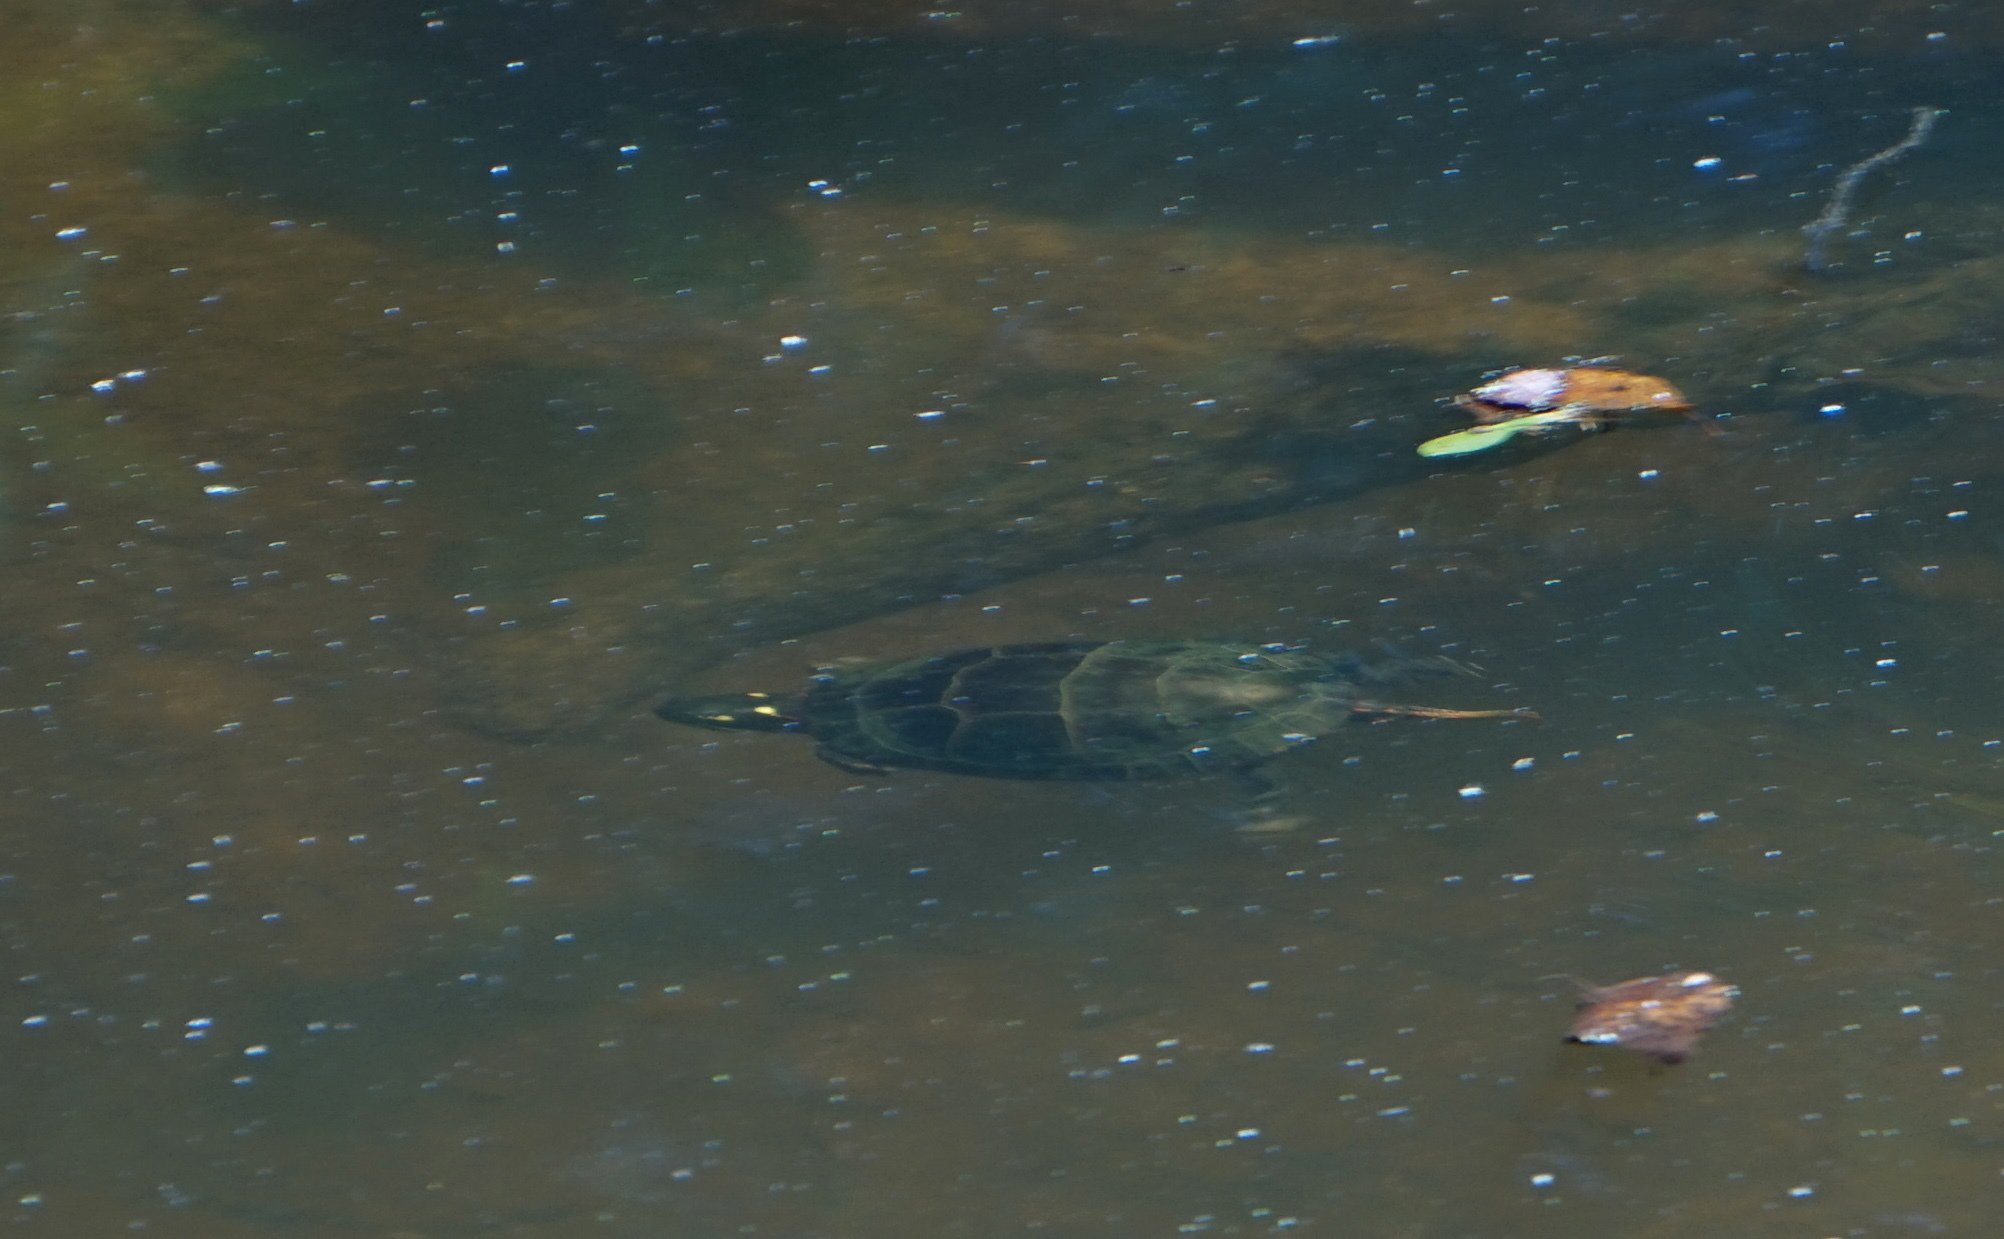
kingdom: Animalia
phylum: Chordata
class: Testudines
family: Emydidae
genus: Chrysemys
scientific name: Chrysemys picta
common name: Painted turtle
